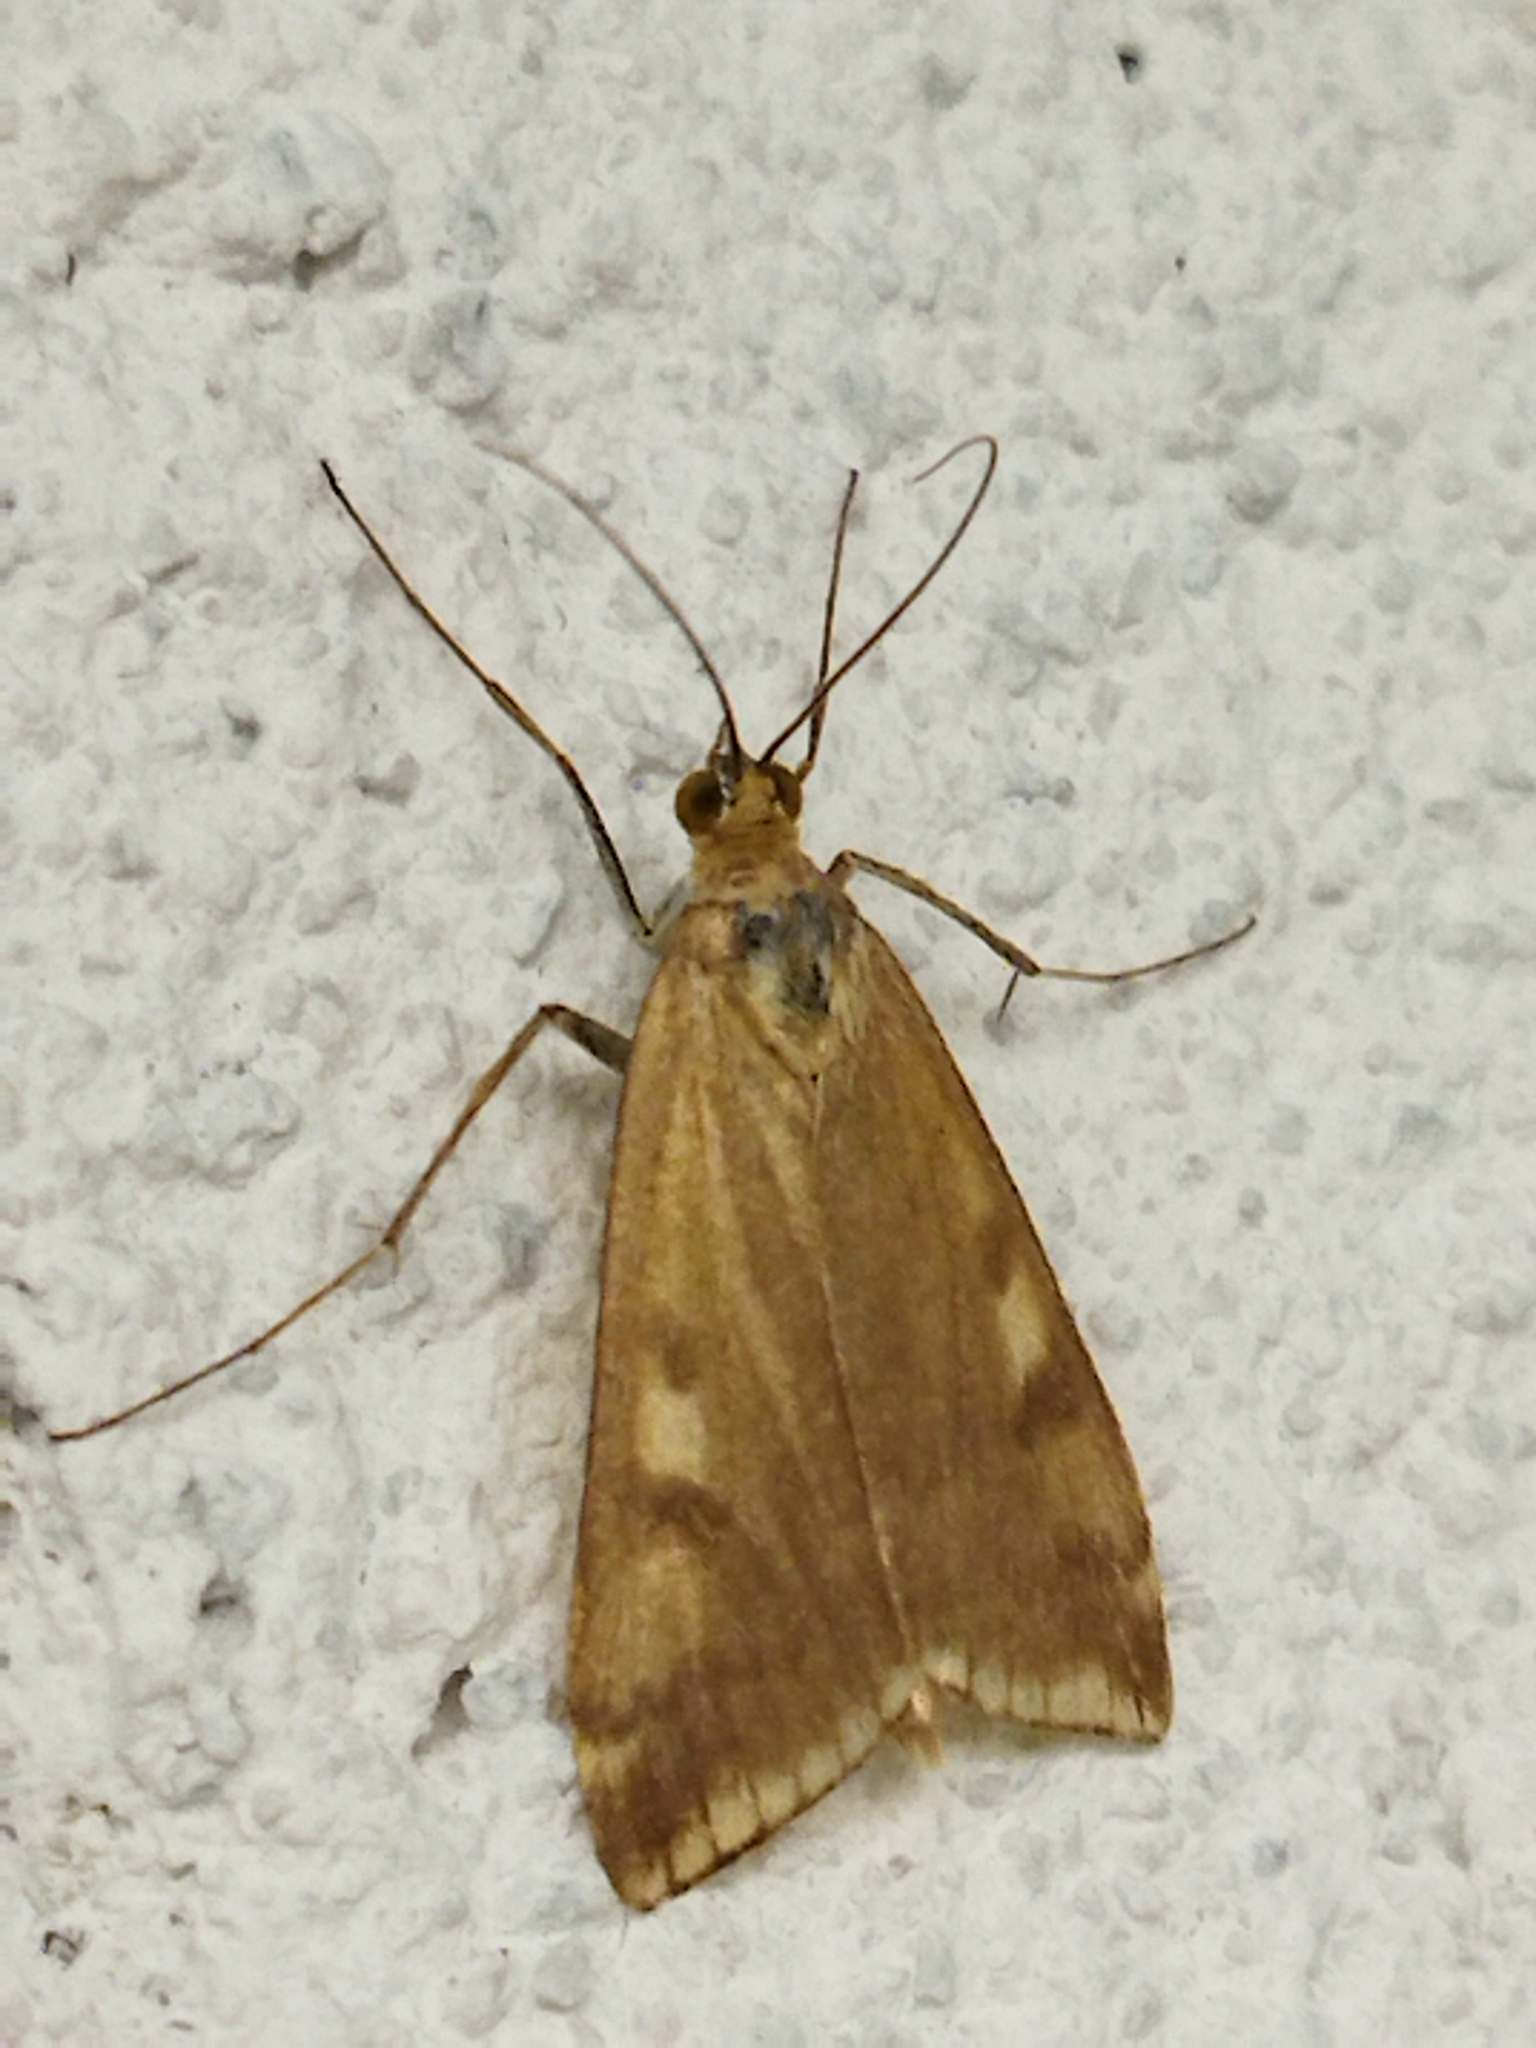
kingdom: Animalia
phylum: Arthropoda
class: Insecta
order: Lepidoptera
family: Crambidae
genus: Loxostege
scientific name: Loxostege sticticalis
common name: Crambid moth
